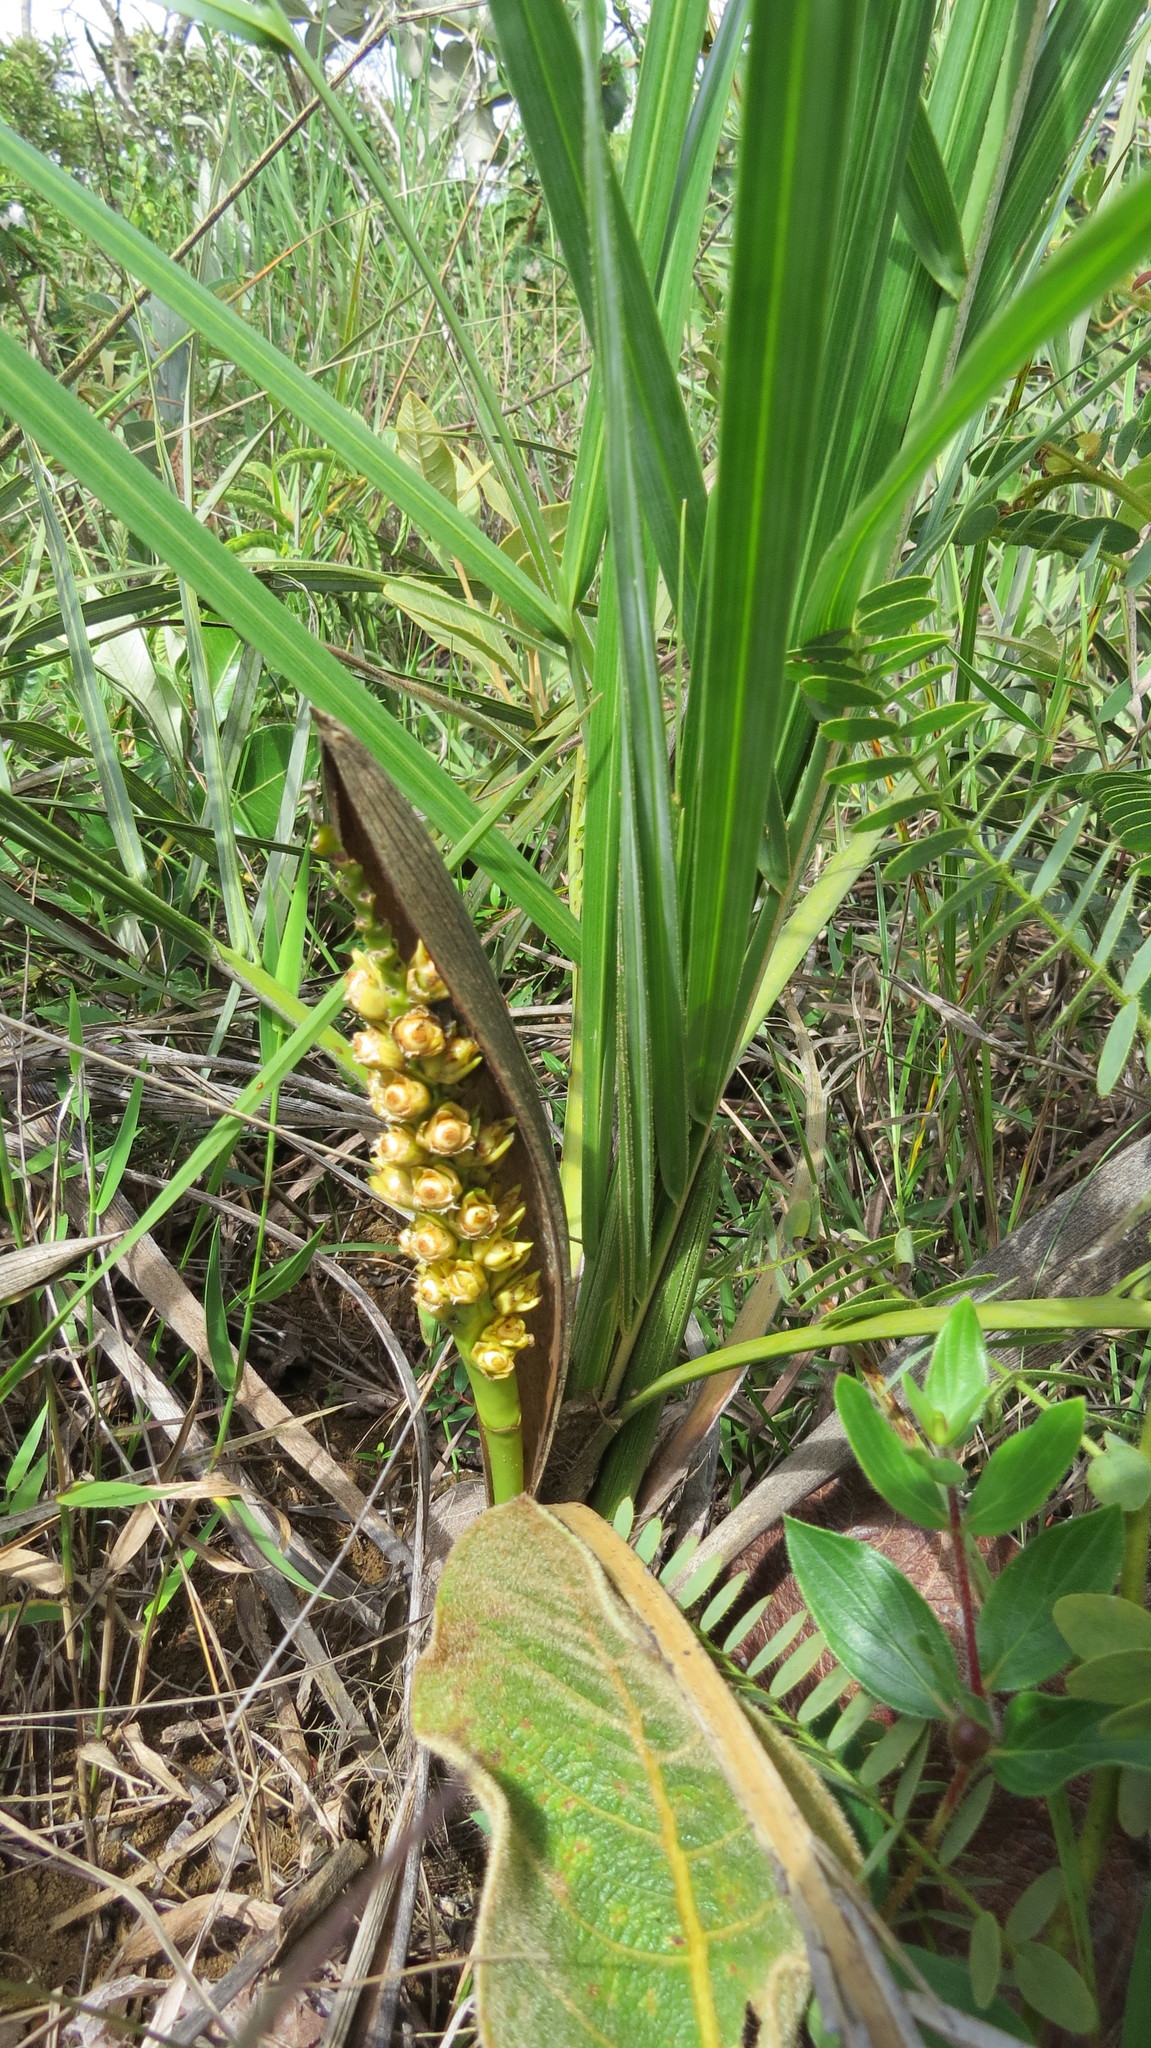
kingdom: Plantae
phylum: Tracheophyta
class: Liliopsida
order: Arecales
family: Arecaceae
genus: Syagrus
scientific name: Syagrus glazioviana
